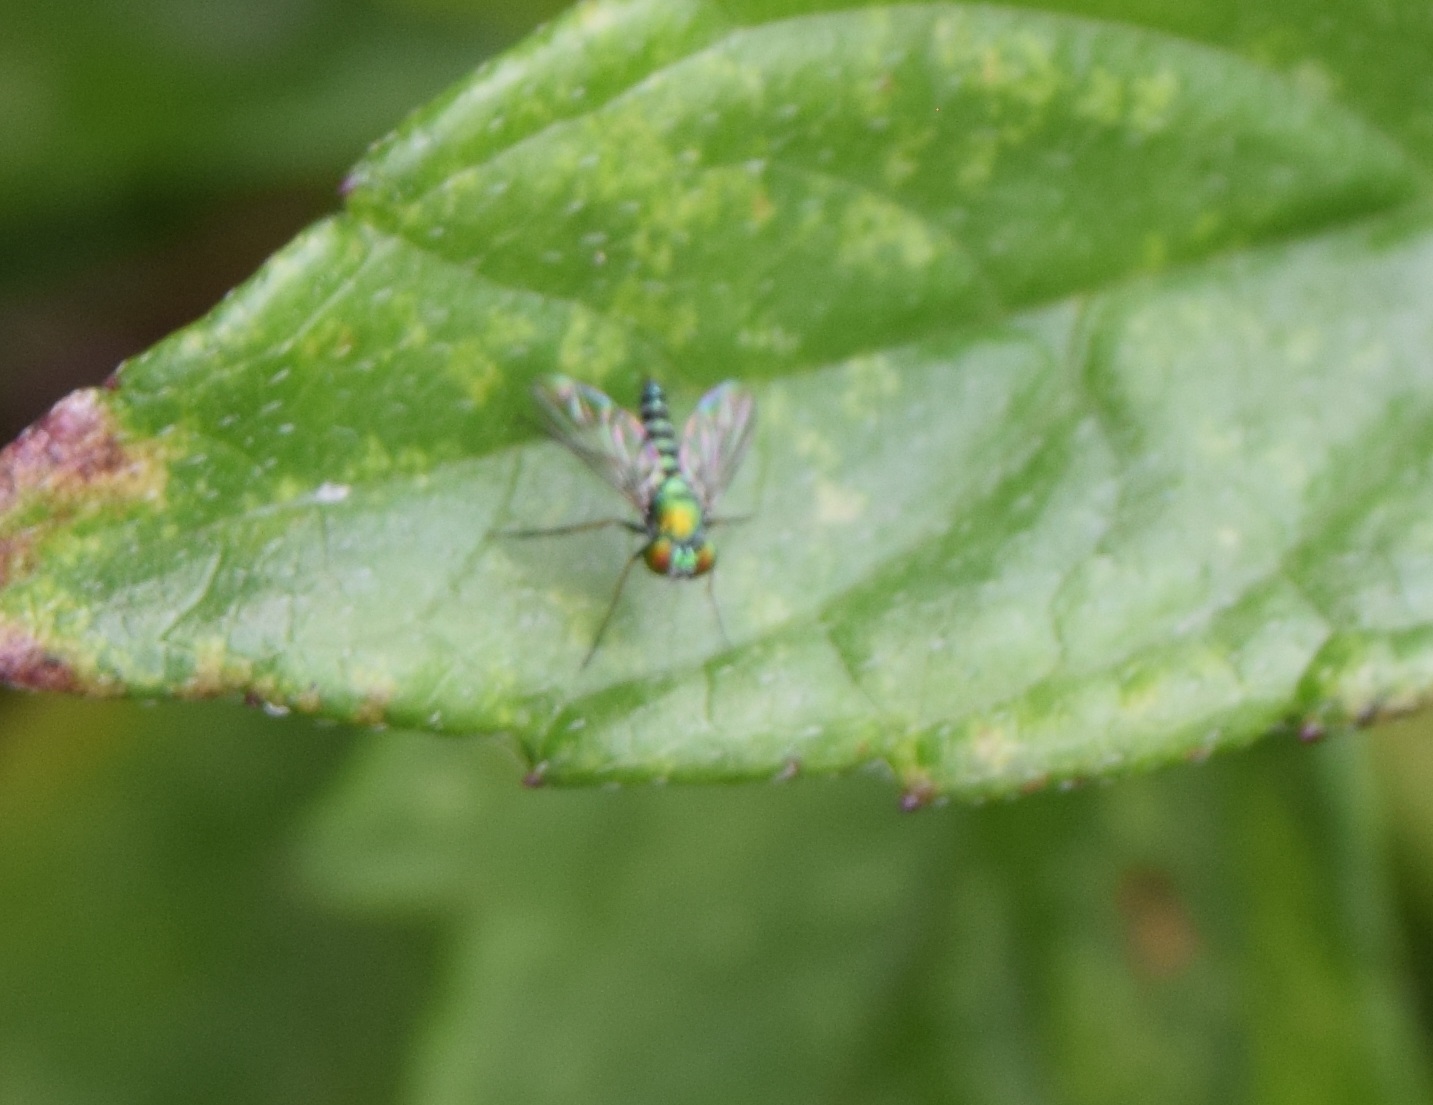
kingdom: Animalia
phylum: Arthropoda
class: Insecta
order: Diptera
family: Dolichopodidae
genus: Condylostylus
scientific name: Condylostylus graenicheri
